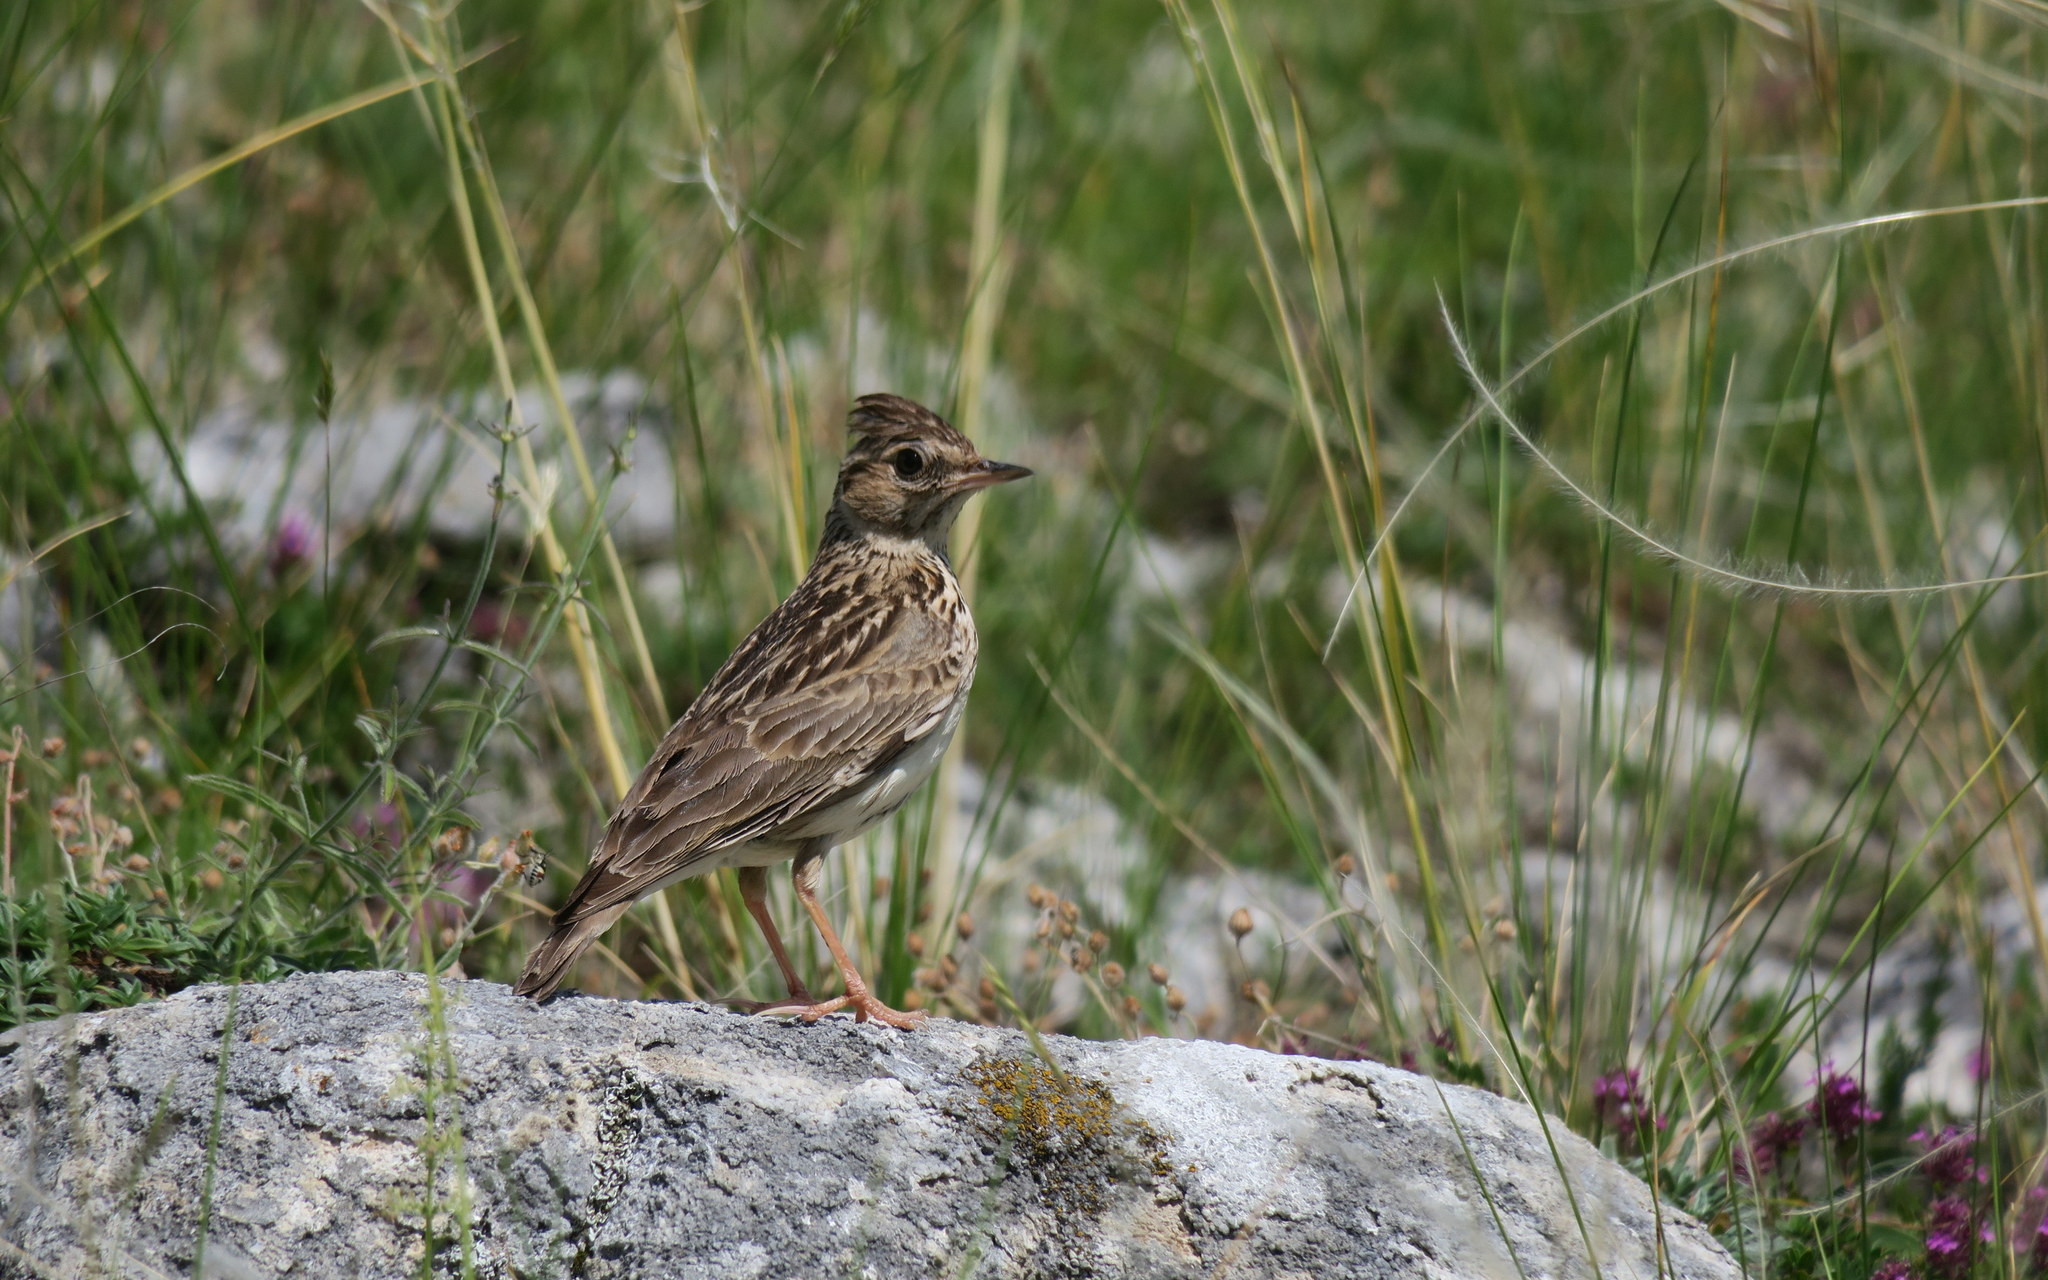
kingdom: Animalia
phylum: Chordata
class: Aves
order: Passeriformes
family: Alaudidae
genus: Lullula
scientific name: Lullula arborea
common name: Woodlark
